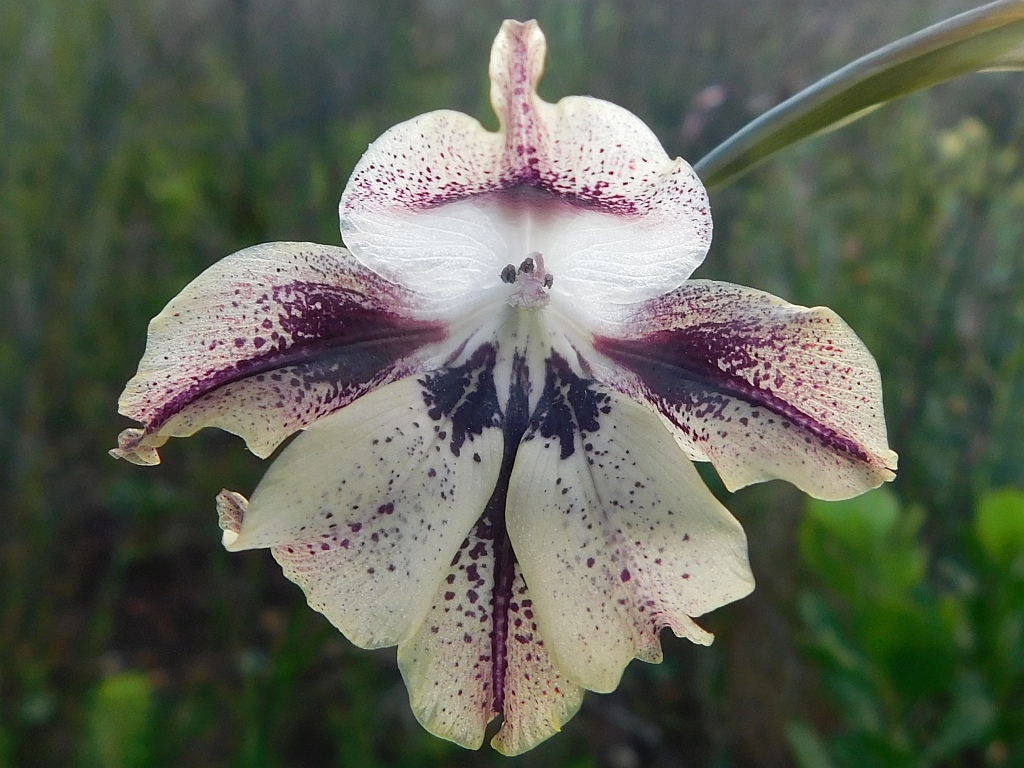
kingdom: Plantae
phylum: Tracheophyta
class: Liliopsida
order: Asparagales
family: Iridaceae
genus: Gladiolus
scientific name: Gladiolus maculatus
